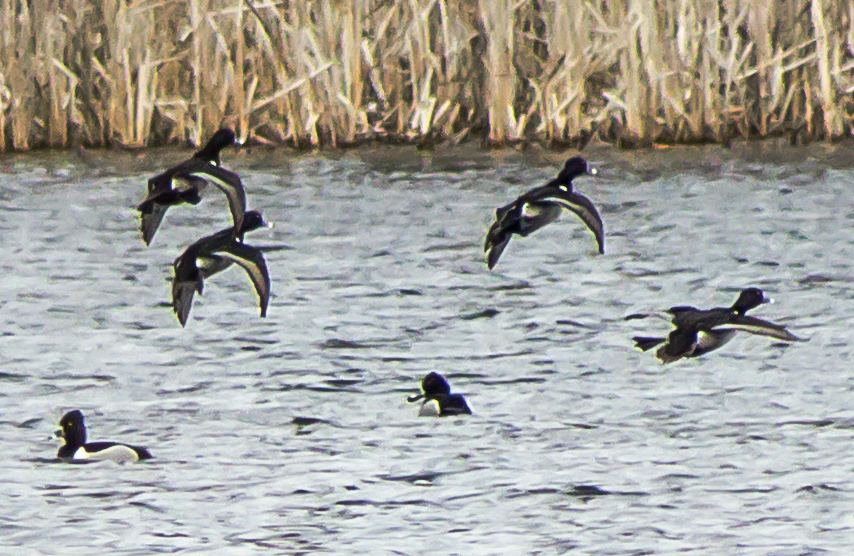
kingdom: Animalia
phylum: Chordata
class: Aves
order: Anseriformes
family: Anatidae
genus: Aythya
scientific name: Aythya collaris
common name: Ring-necked duck
